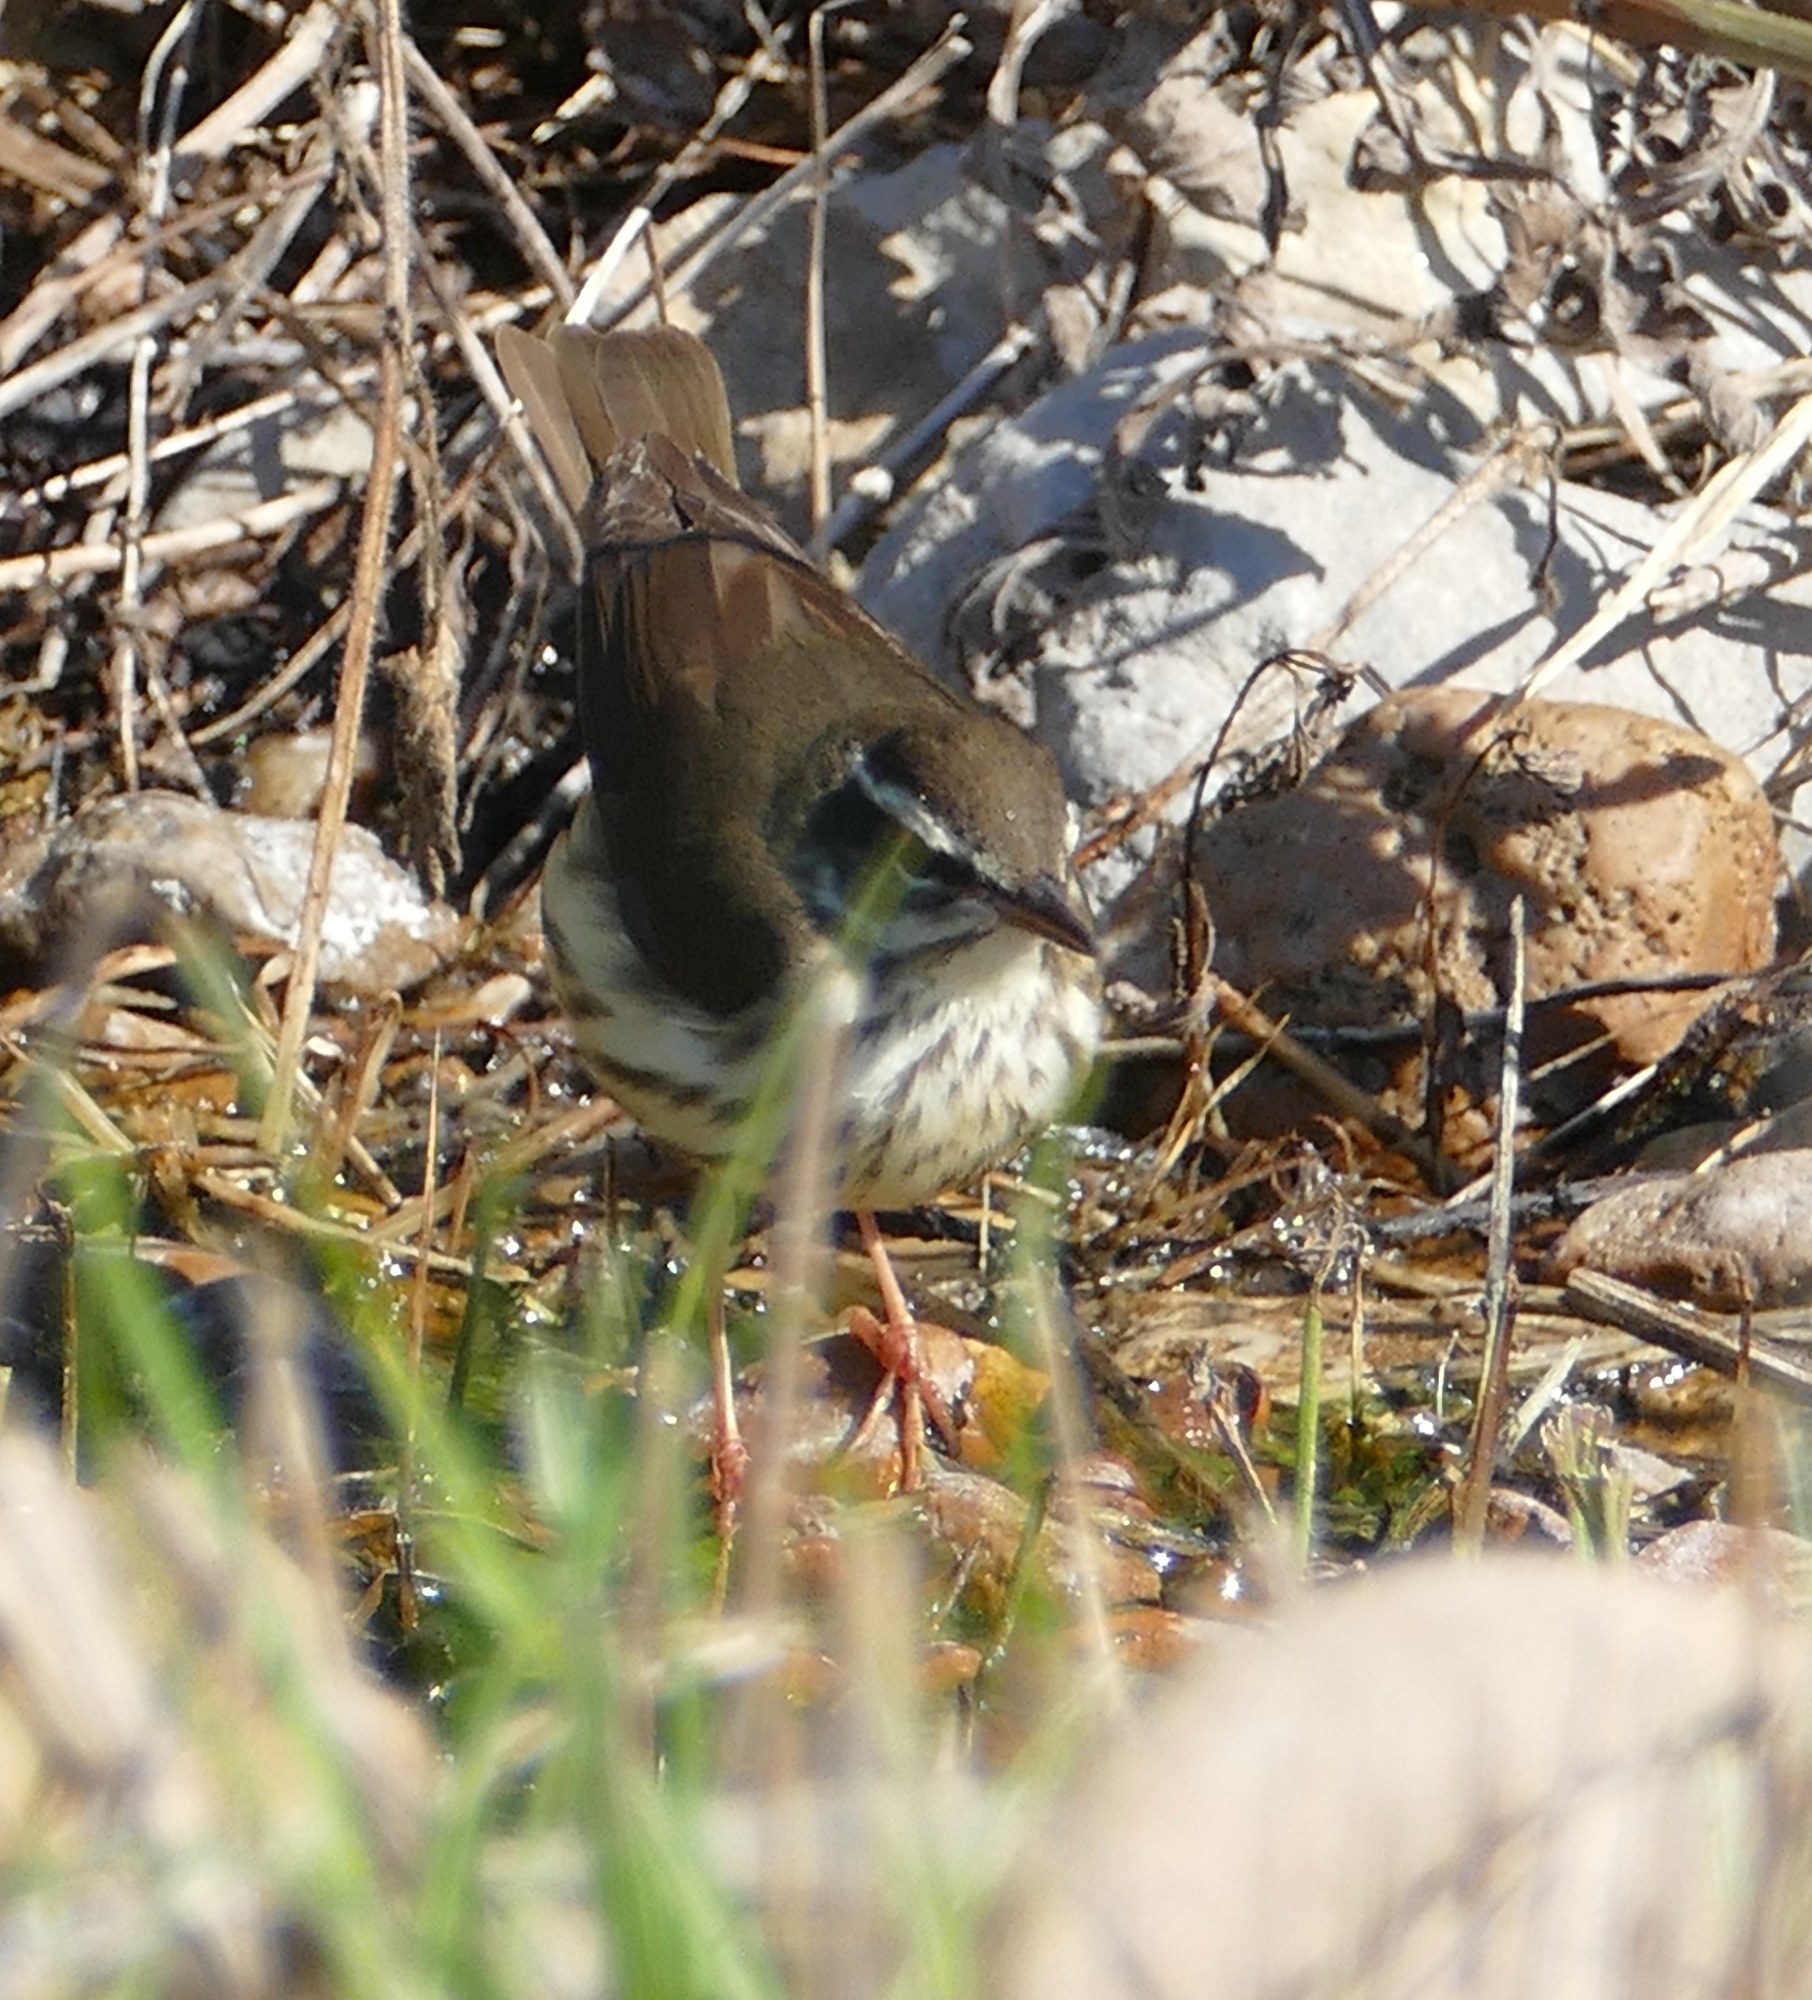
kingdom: Animalia
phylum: Chordata
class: Aves
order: Passeriformes
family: Parulidae
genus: Parkesia
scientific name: Parkesia motacilla
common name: Louisiana waterthrush
